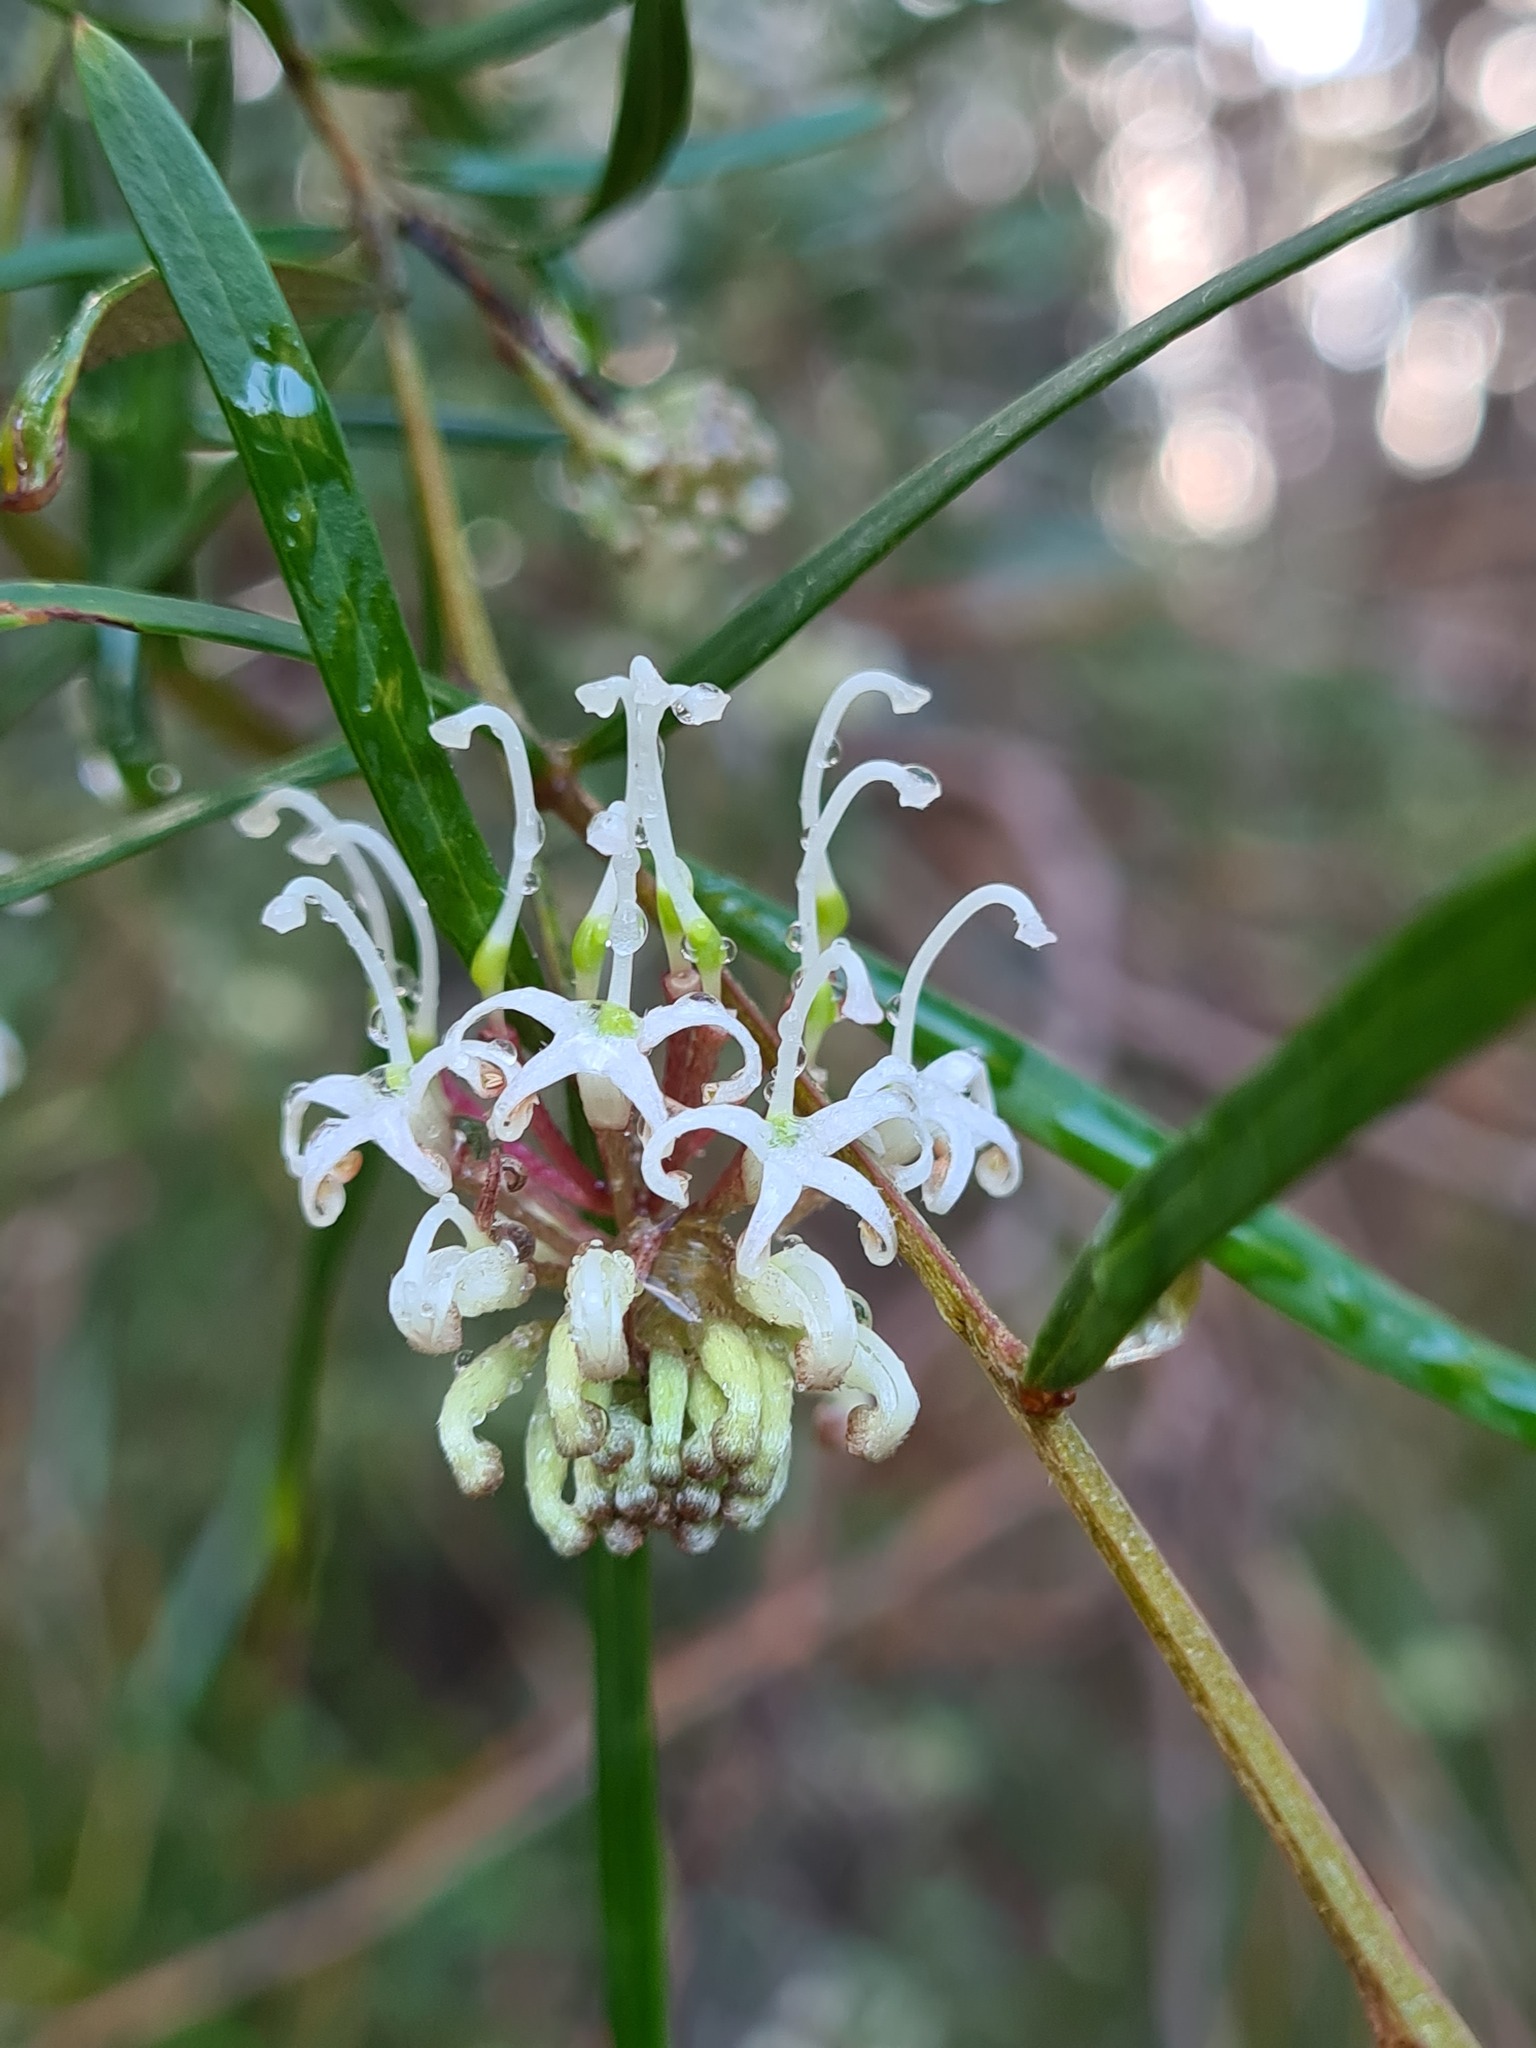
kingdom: Plantae
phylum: Tracheophyta
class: Magnoliopsida
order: Proteales
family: Proteaceae
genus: Grevillea
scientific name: Grevillea linearifolia
